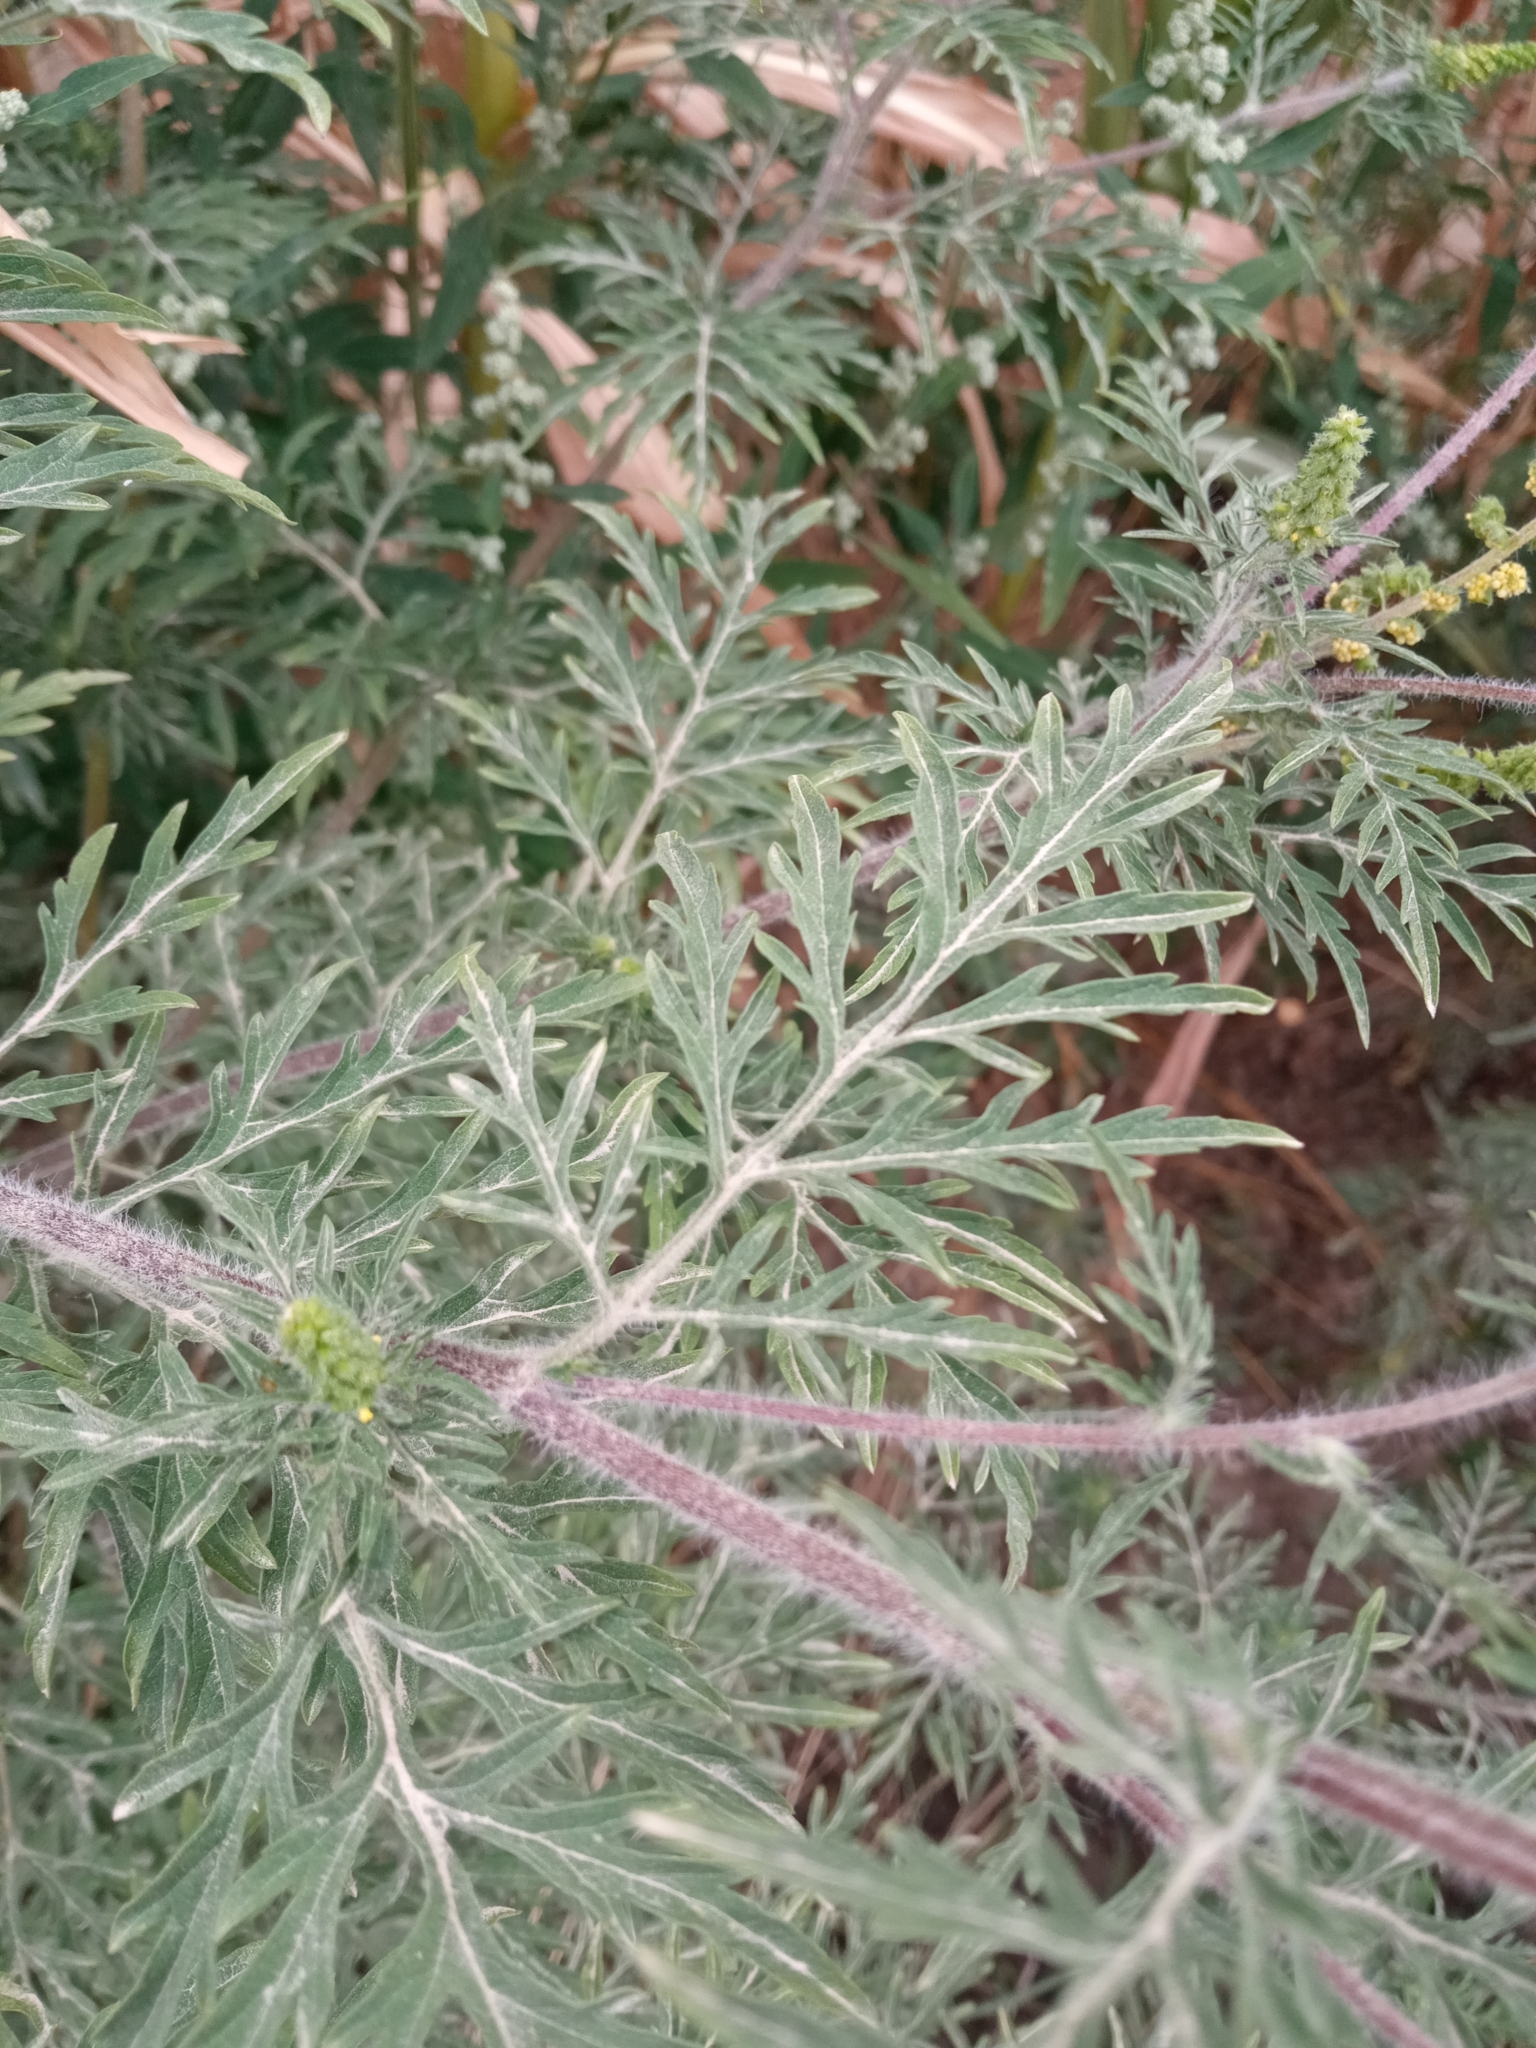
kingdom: Plantae
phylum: Tracheophyta
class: Magnoliopsida
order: Asterales
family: Asteraceae
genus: Ambrosia
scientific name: Ambrosia artemisiifolia
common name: Annual ragweed
